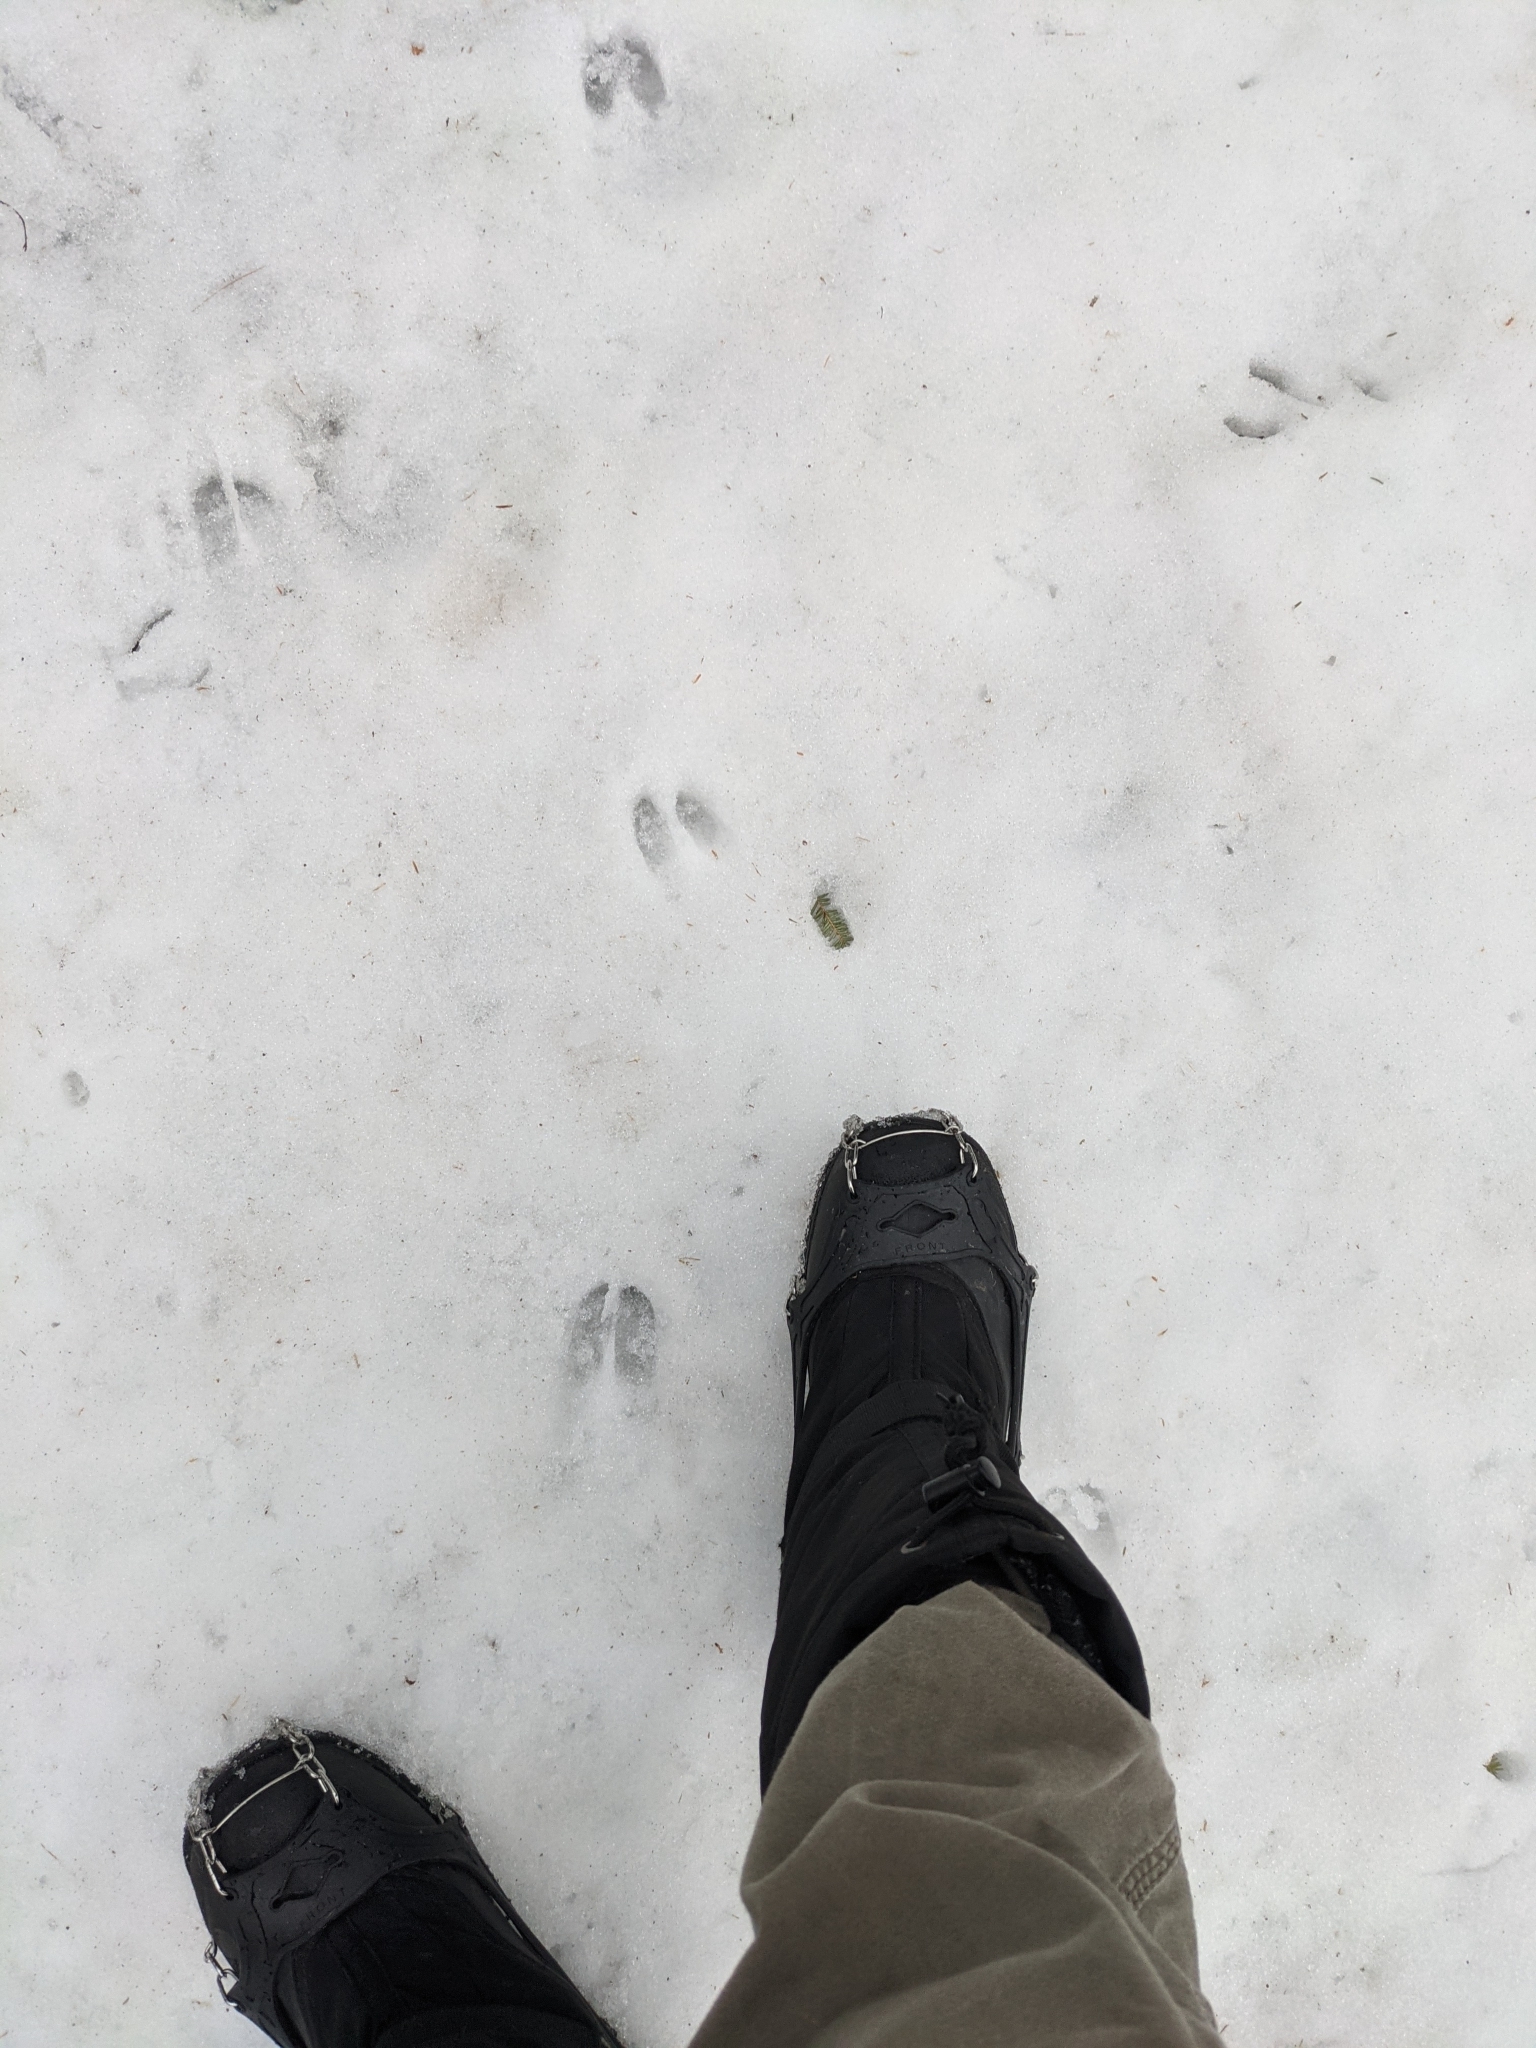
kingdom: Animalia
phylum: Chordata
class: Mammalia
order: Artiodactyla
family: Cervidae
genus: Odocoileus
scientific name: Odocoileus virginianus
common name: White-tailed deer
